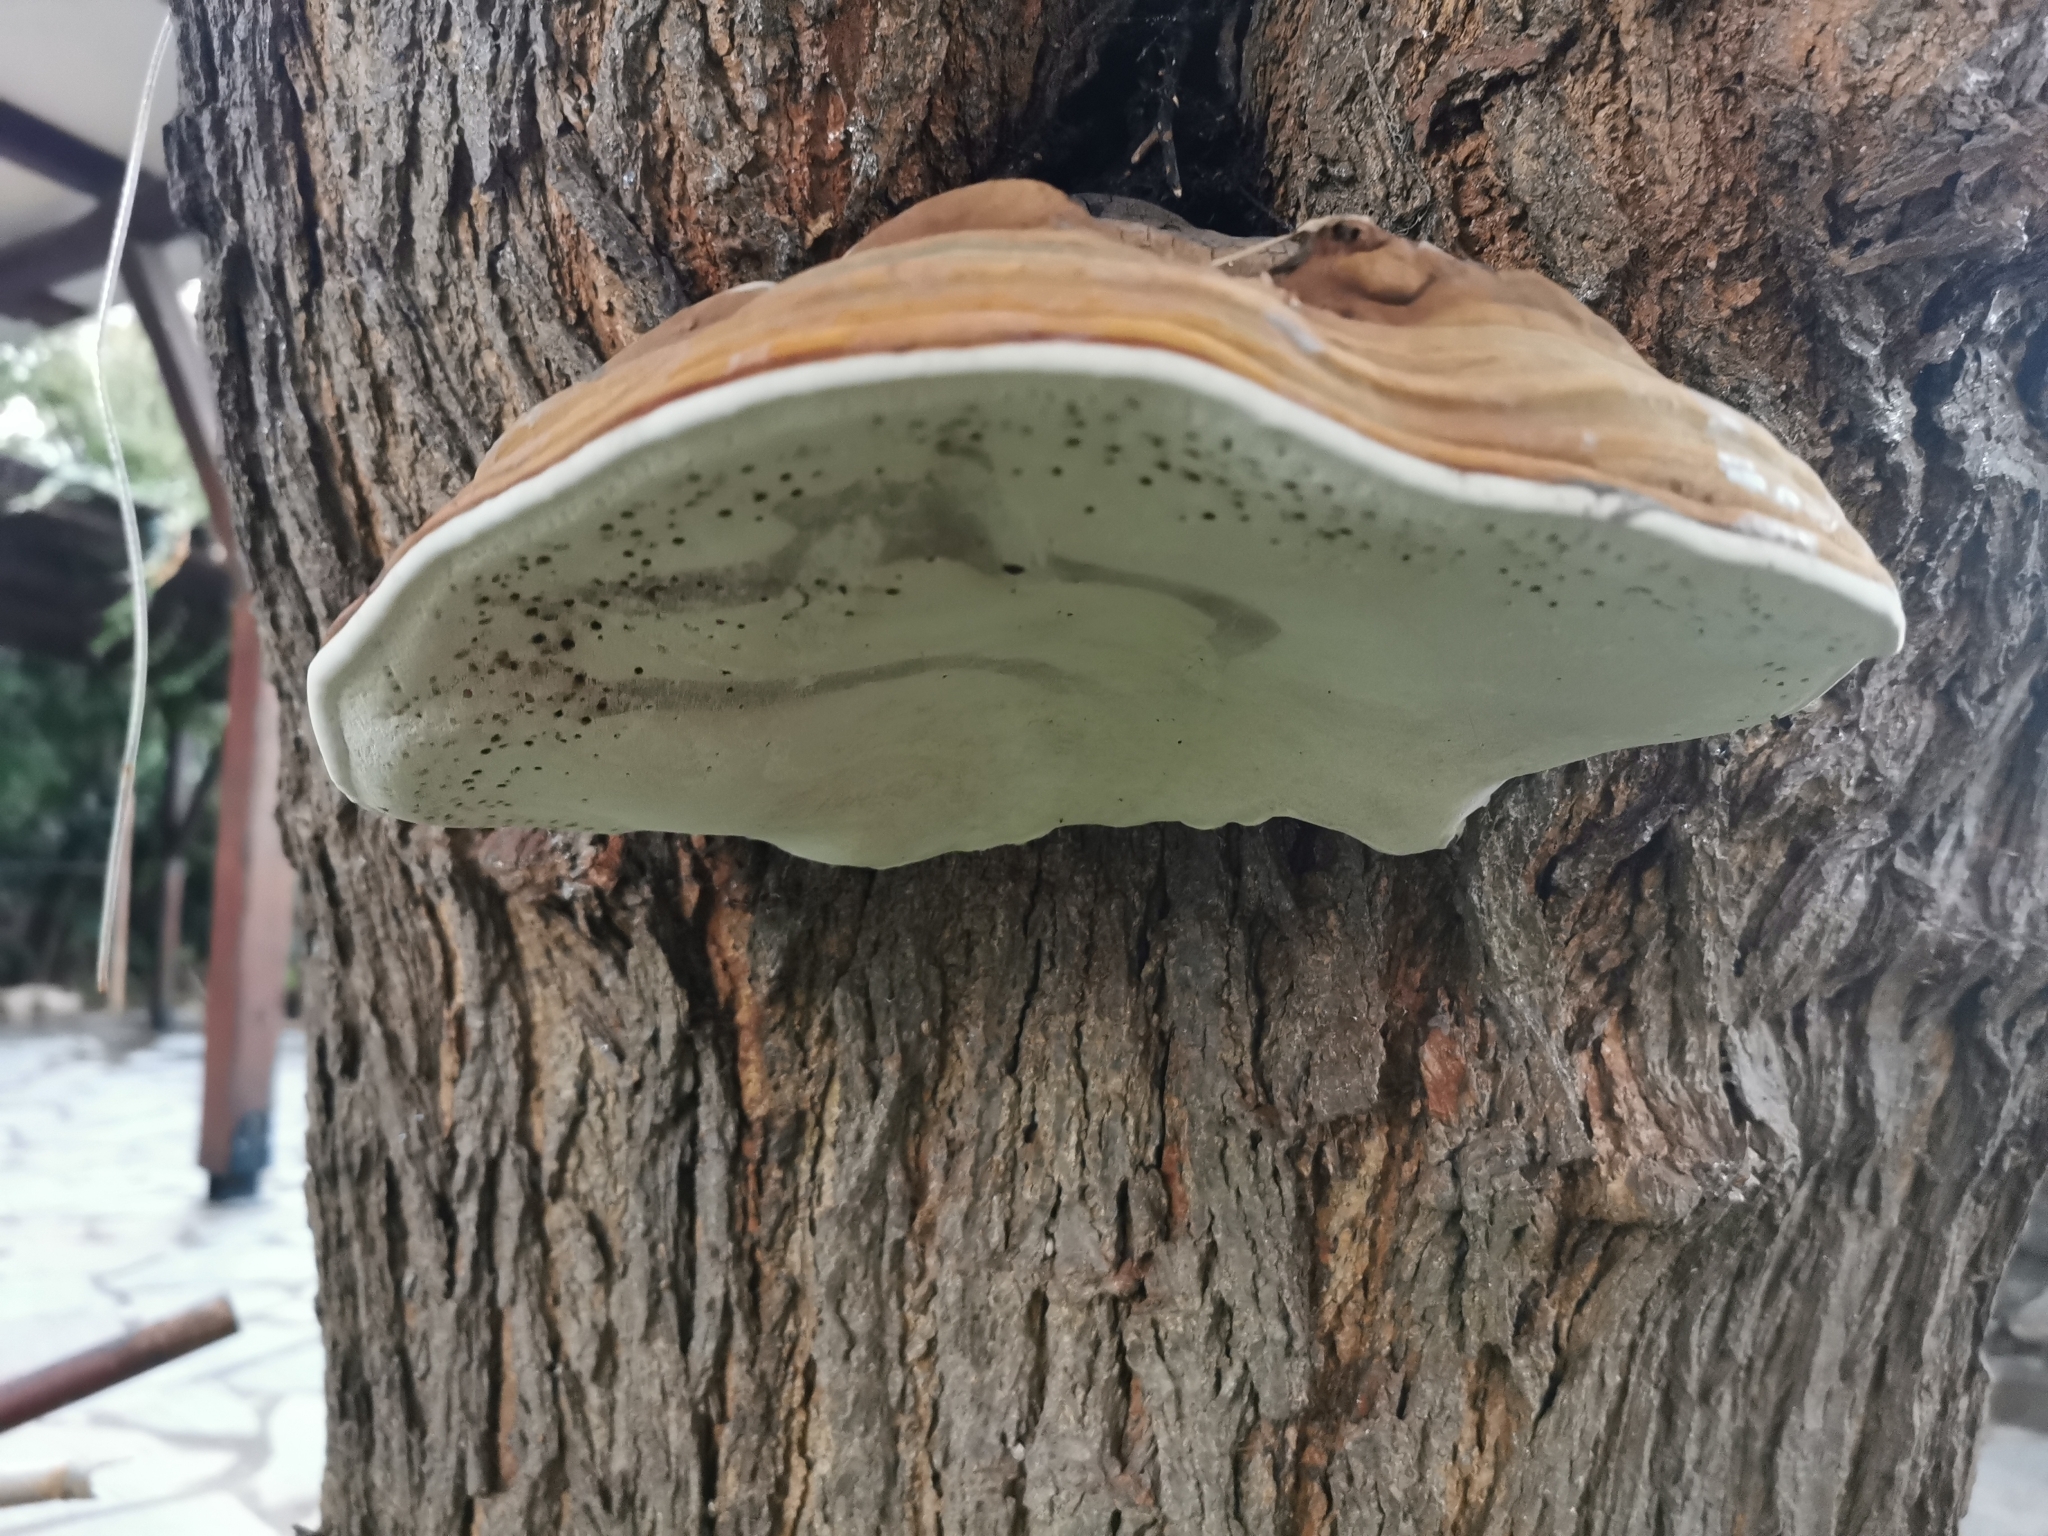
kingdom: Fungi
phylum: Basidiomycota
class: Agaricomycetes
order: Polyporales
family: Polyporaceae
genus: Ganoderma
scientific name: Ganoderma applanatum
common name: Artist's bracket
